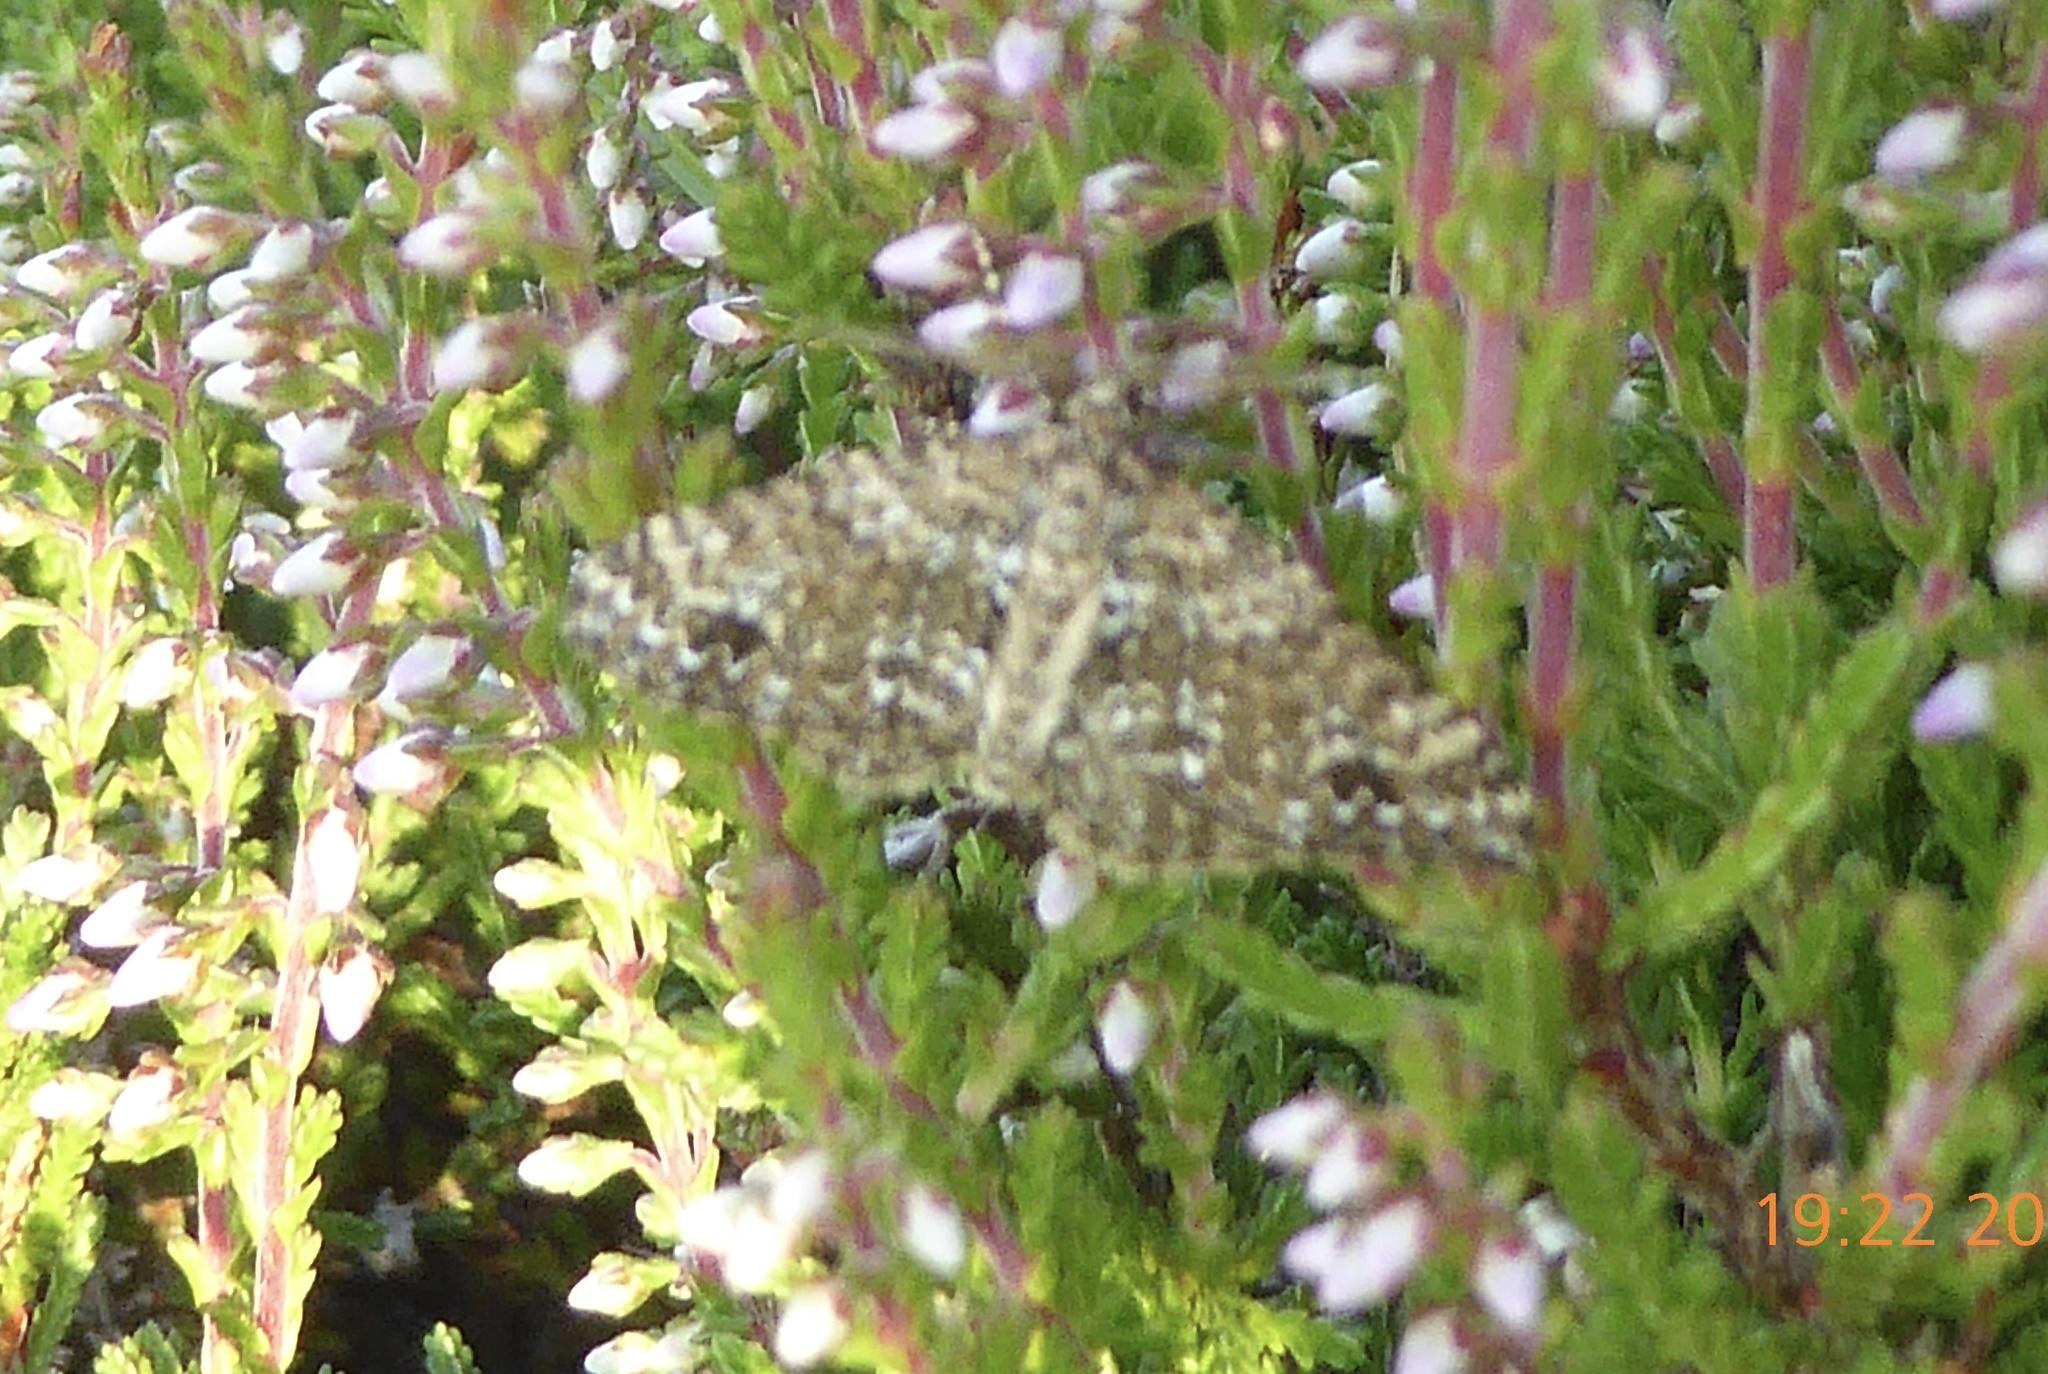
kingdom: Animalia
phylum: Arthropoda
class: Insecta
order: Lepidoptera
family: Geometridae
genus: Perizoma
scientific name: Perizoma didymata
